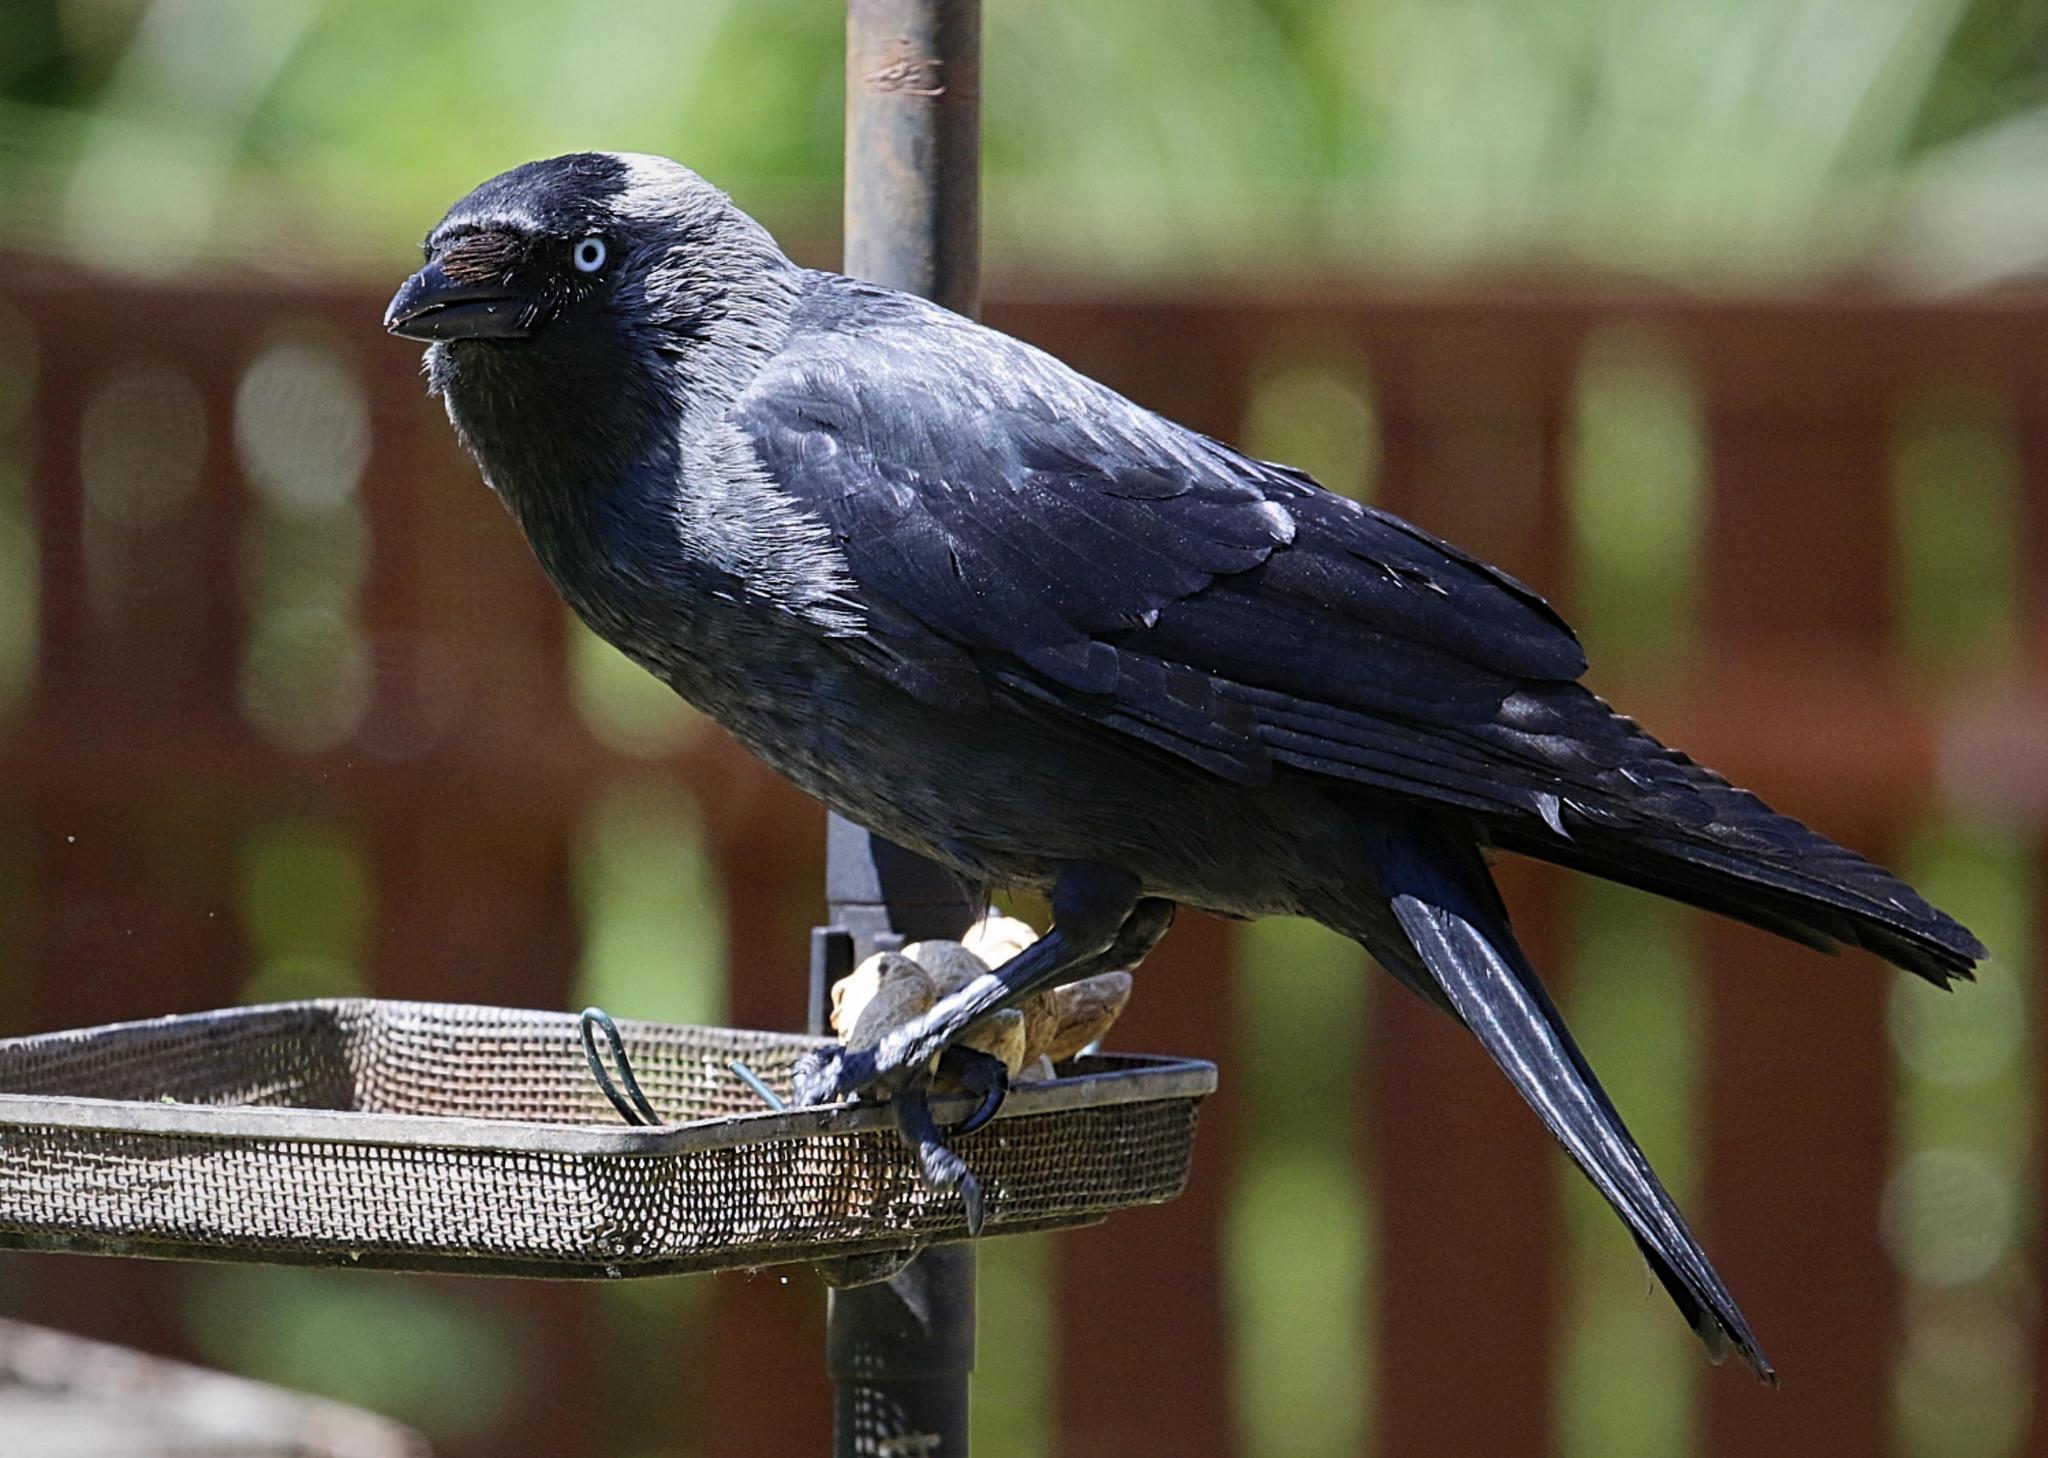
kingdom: Animalia
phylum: Chordata
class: Aves
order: Passeriformes
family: Corvidae
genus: Coloeus
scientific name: Coloeus monedula
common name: Western jackdaw
